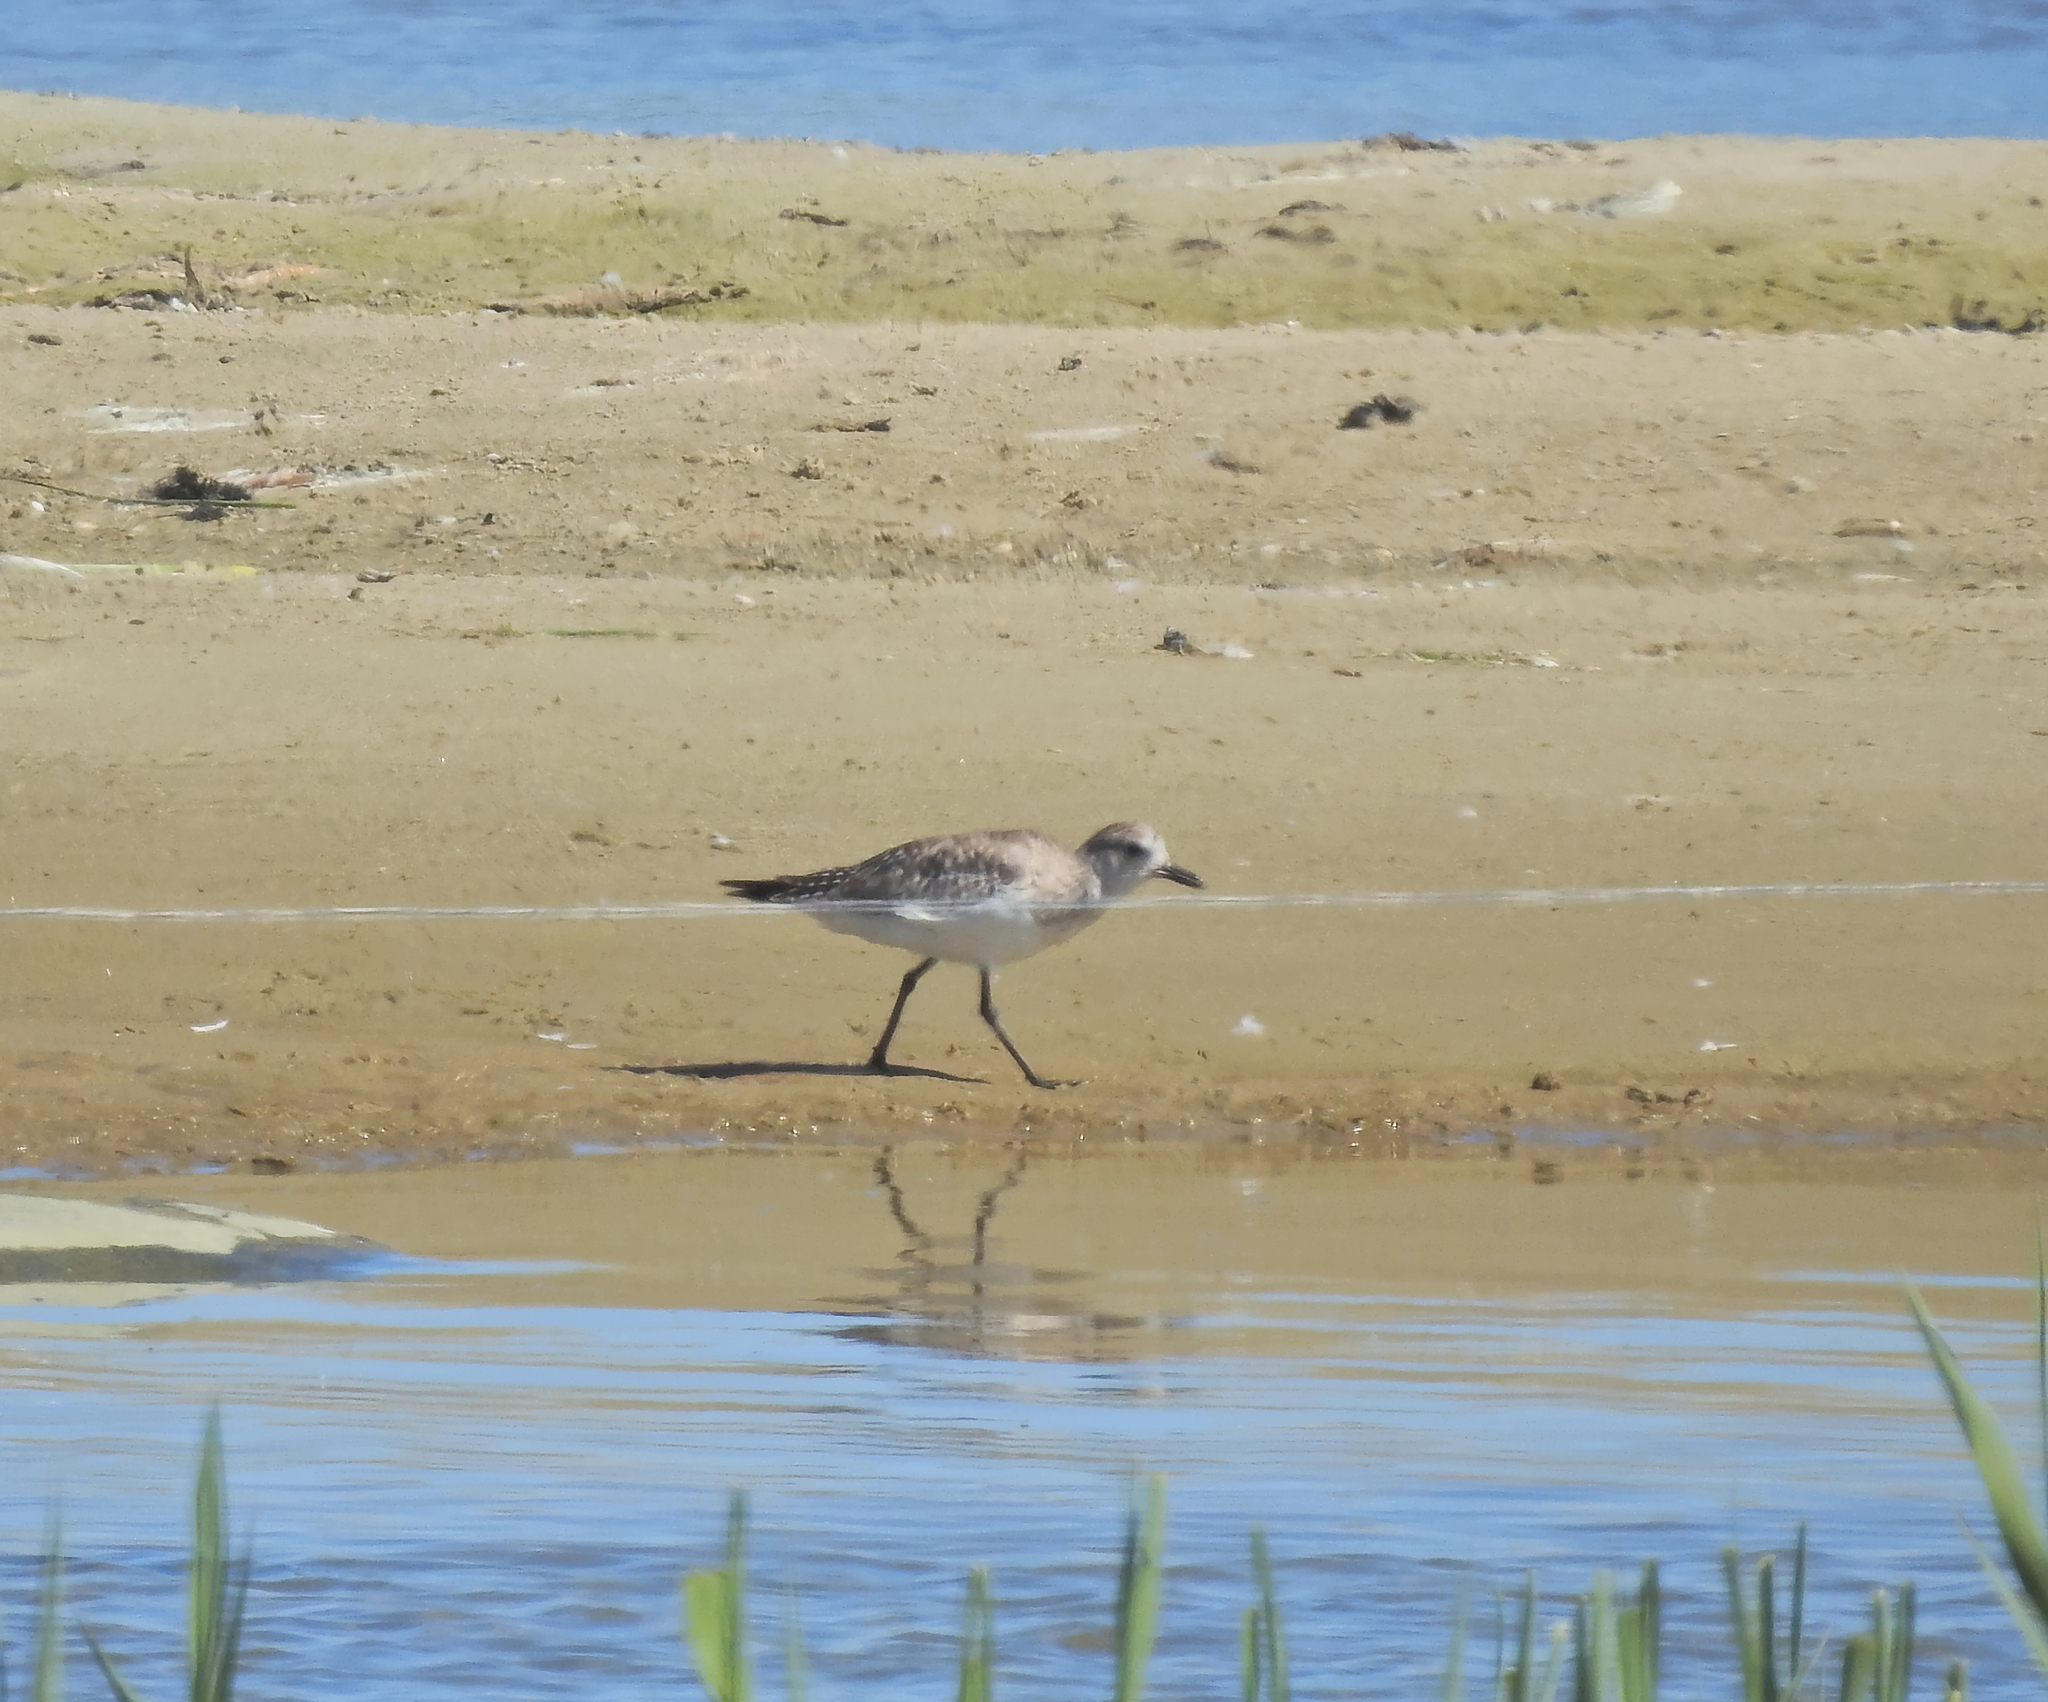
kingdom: Animalia
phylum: Chordata
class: Aves
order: Charadriiformes
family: Charadriidae
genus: Pluvialis
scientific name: Pluvialis squatarola
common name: Grey plover
